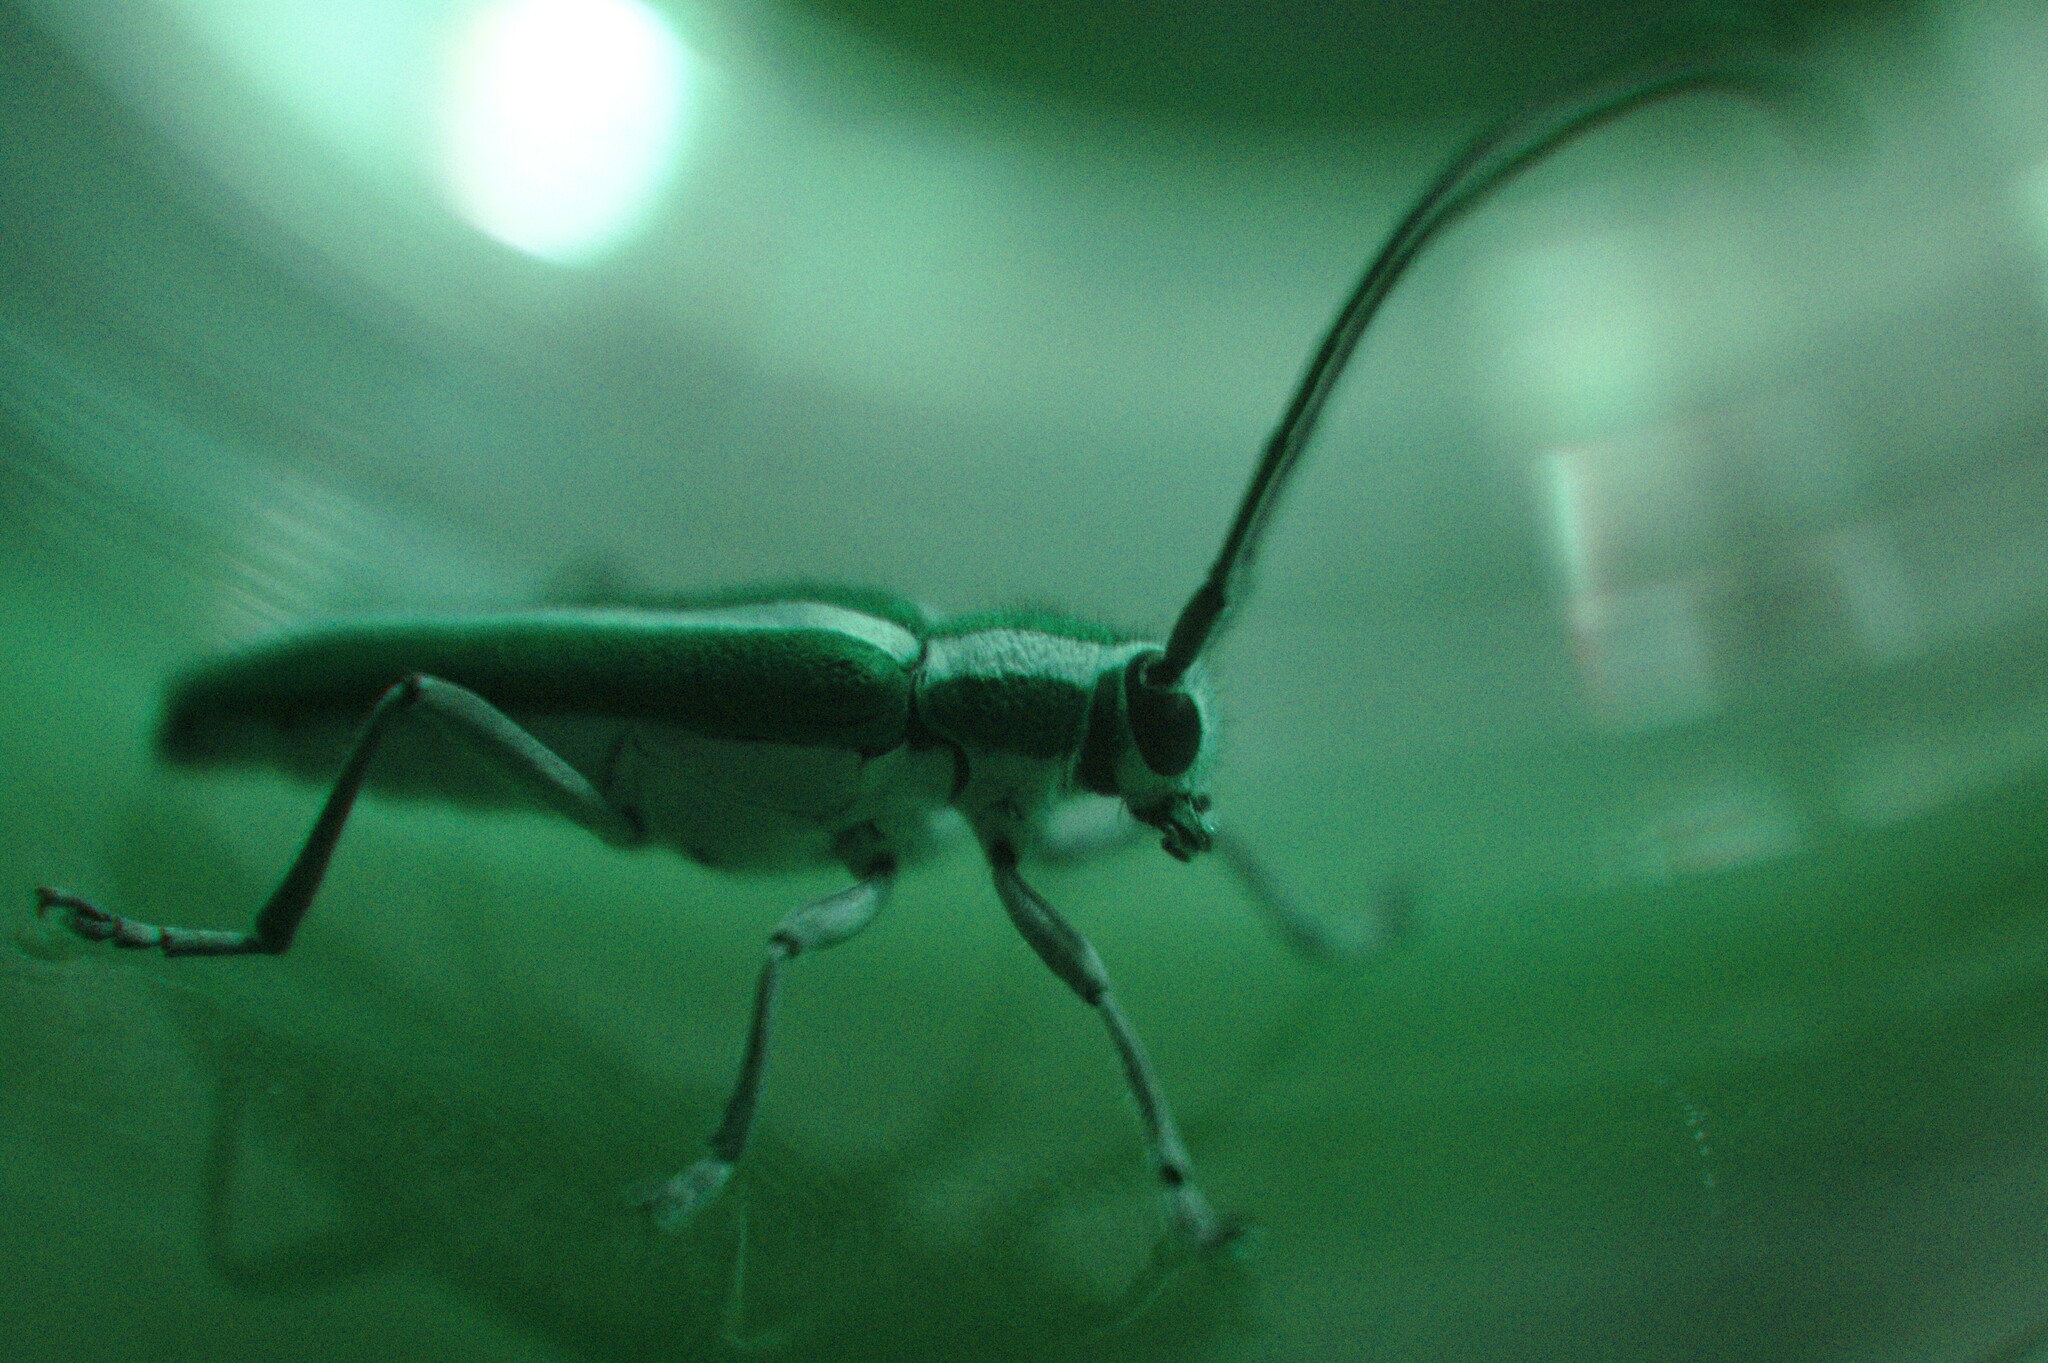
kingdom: Animalia
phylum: Arthropoda
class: Insecta
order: Coleoptera
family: Cerambycidae
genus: Saperda
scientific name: Saperda candida
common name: Round-headed borer
